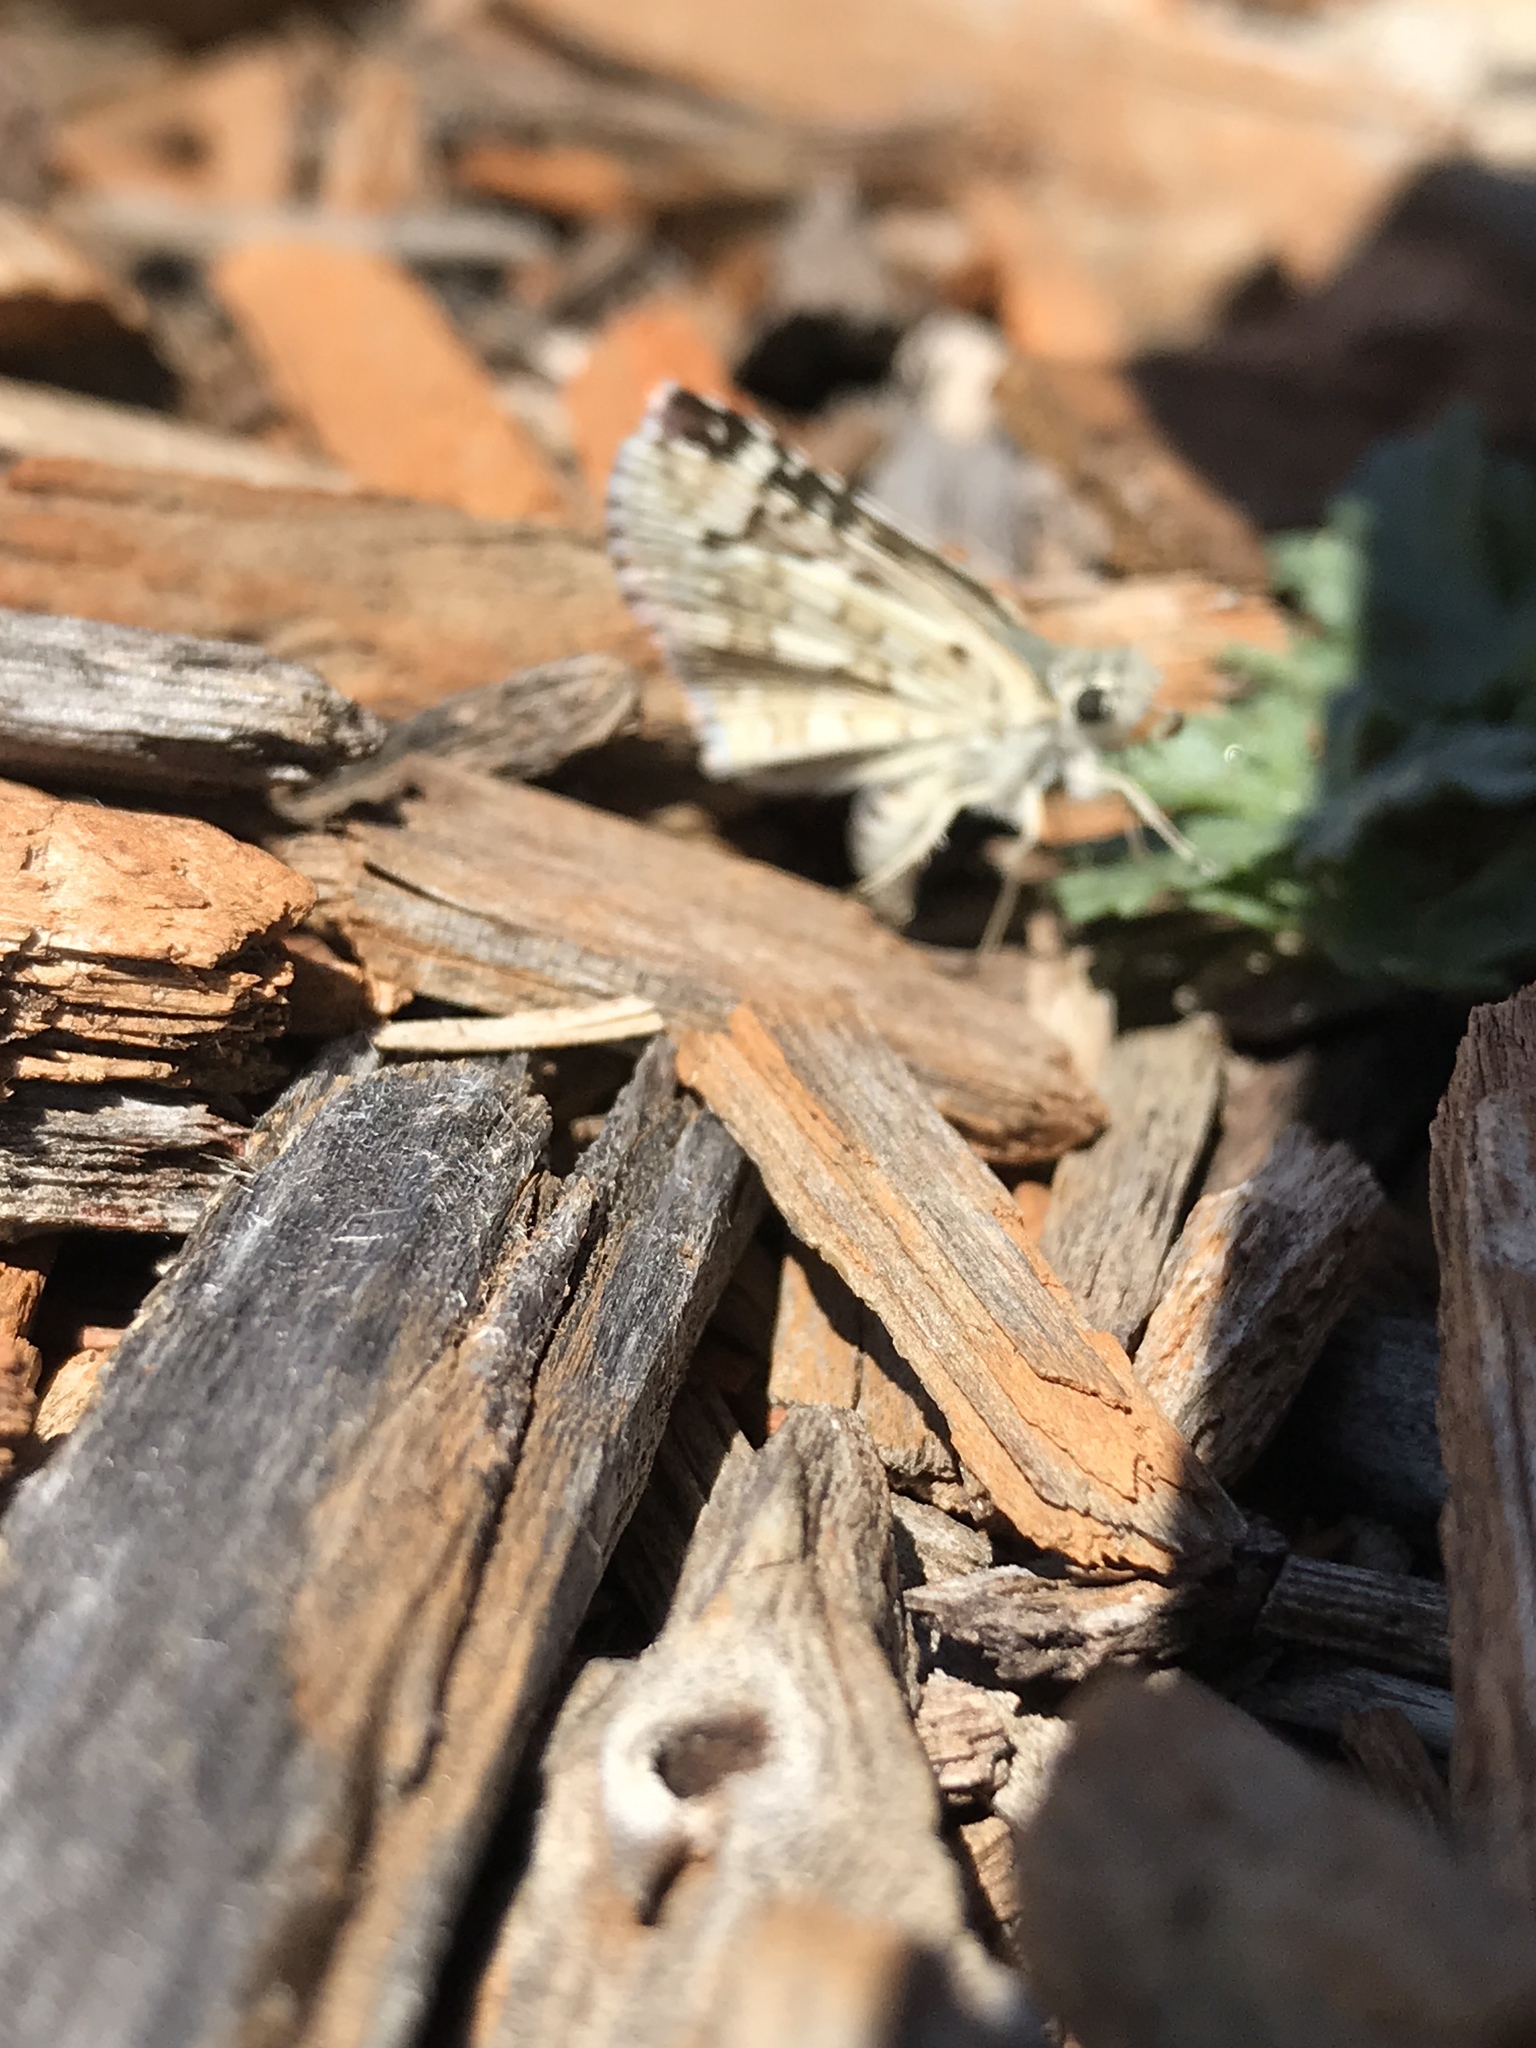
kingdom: Animalia
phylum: Arthropoda
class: Insecta
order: Lepidoptera
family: Hesperiidae
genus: Burnsius
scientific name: Burnsius communis
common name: Common checkered-skipper
